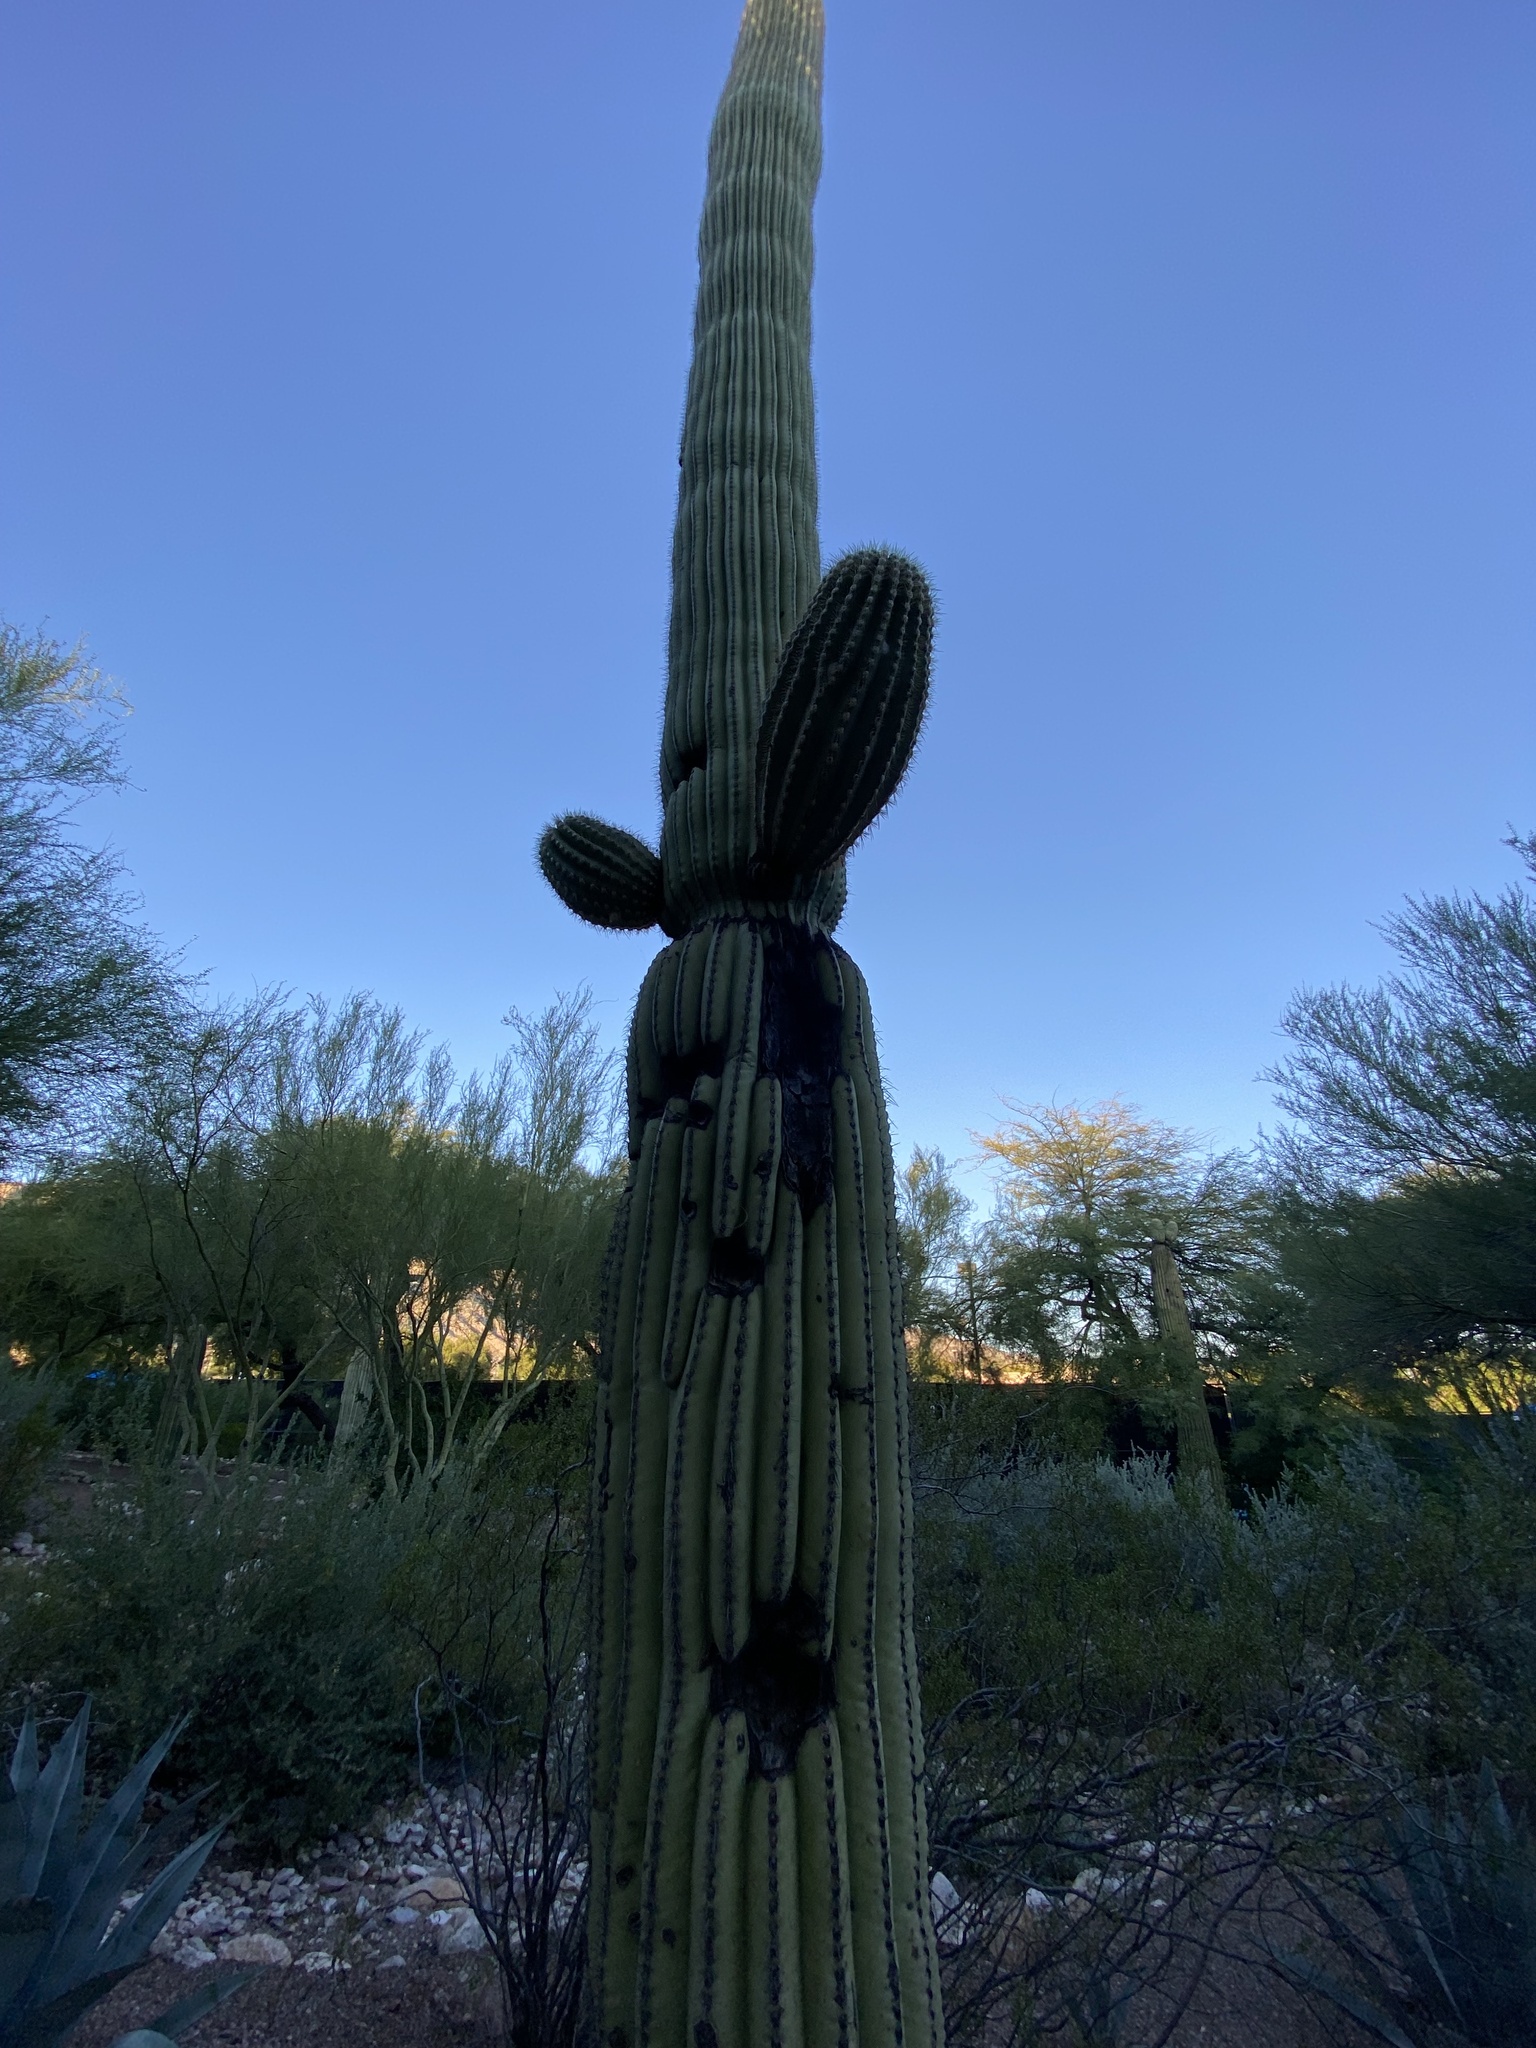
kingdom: Plantae
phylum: Tracheophyta
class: Magnoliopsida
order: Caryophyllales
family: Cactaceae
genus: Carnegiea
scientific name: Carnegiea gigantea
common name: Saguaro
